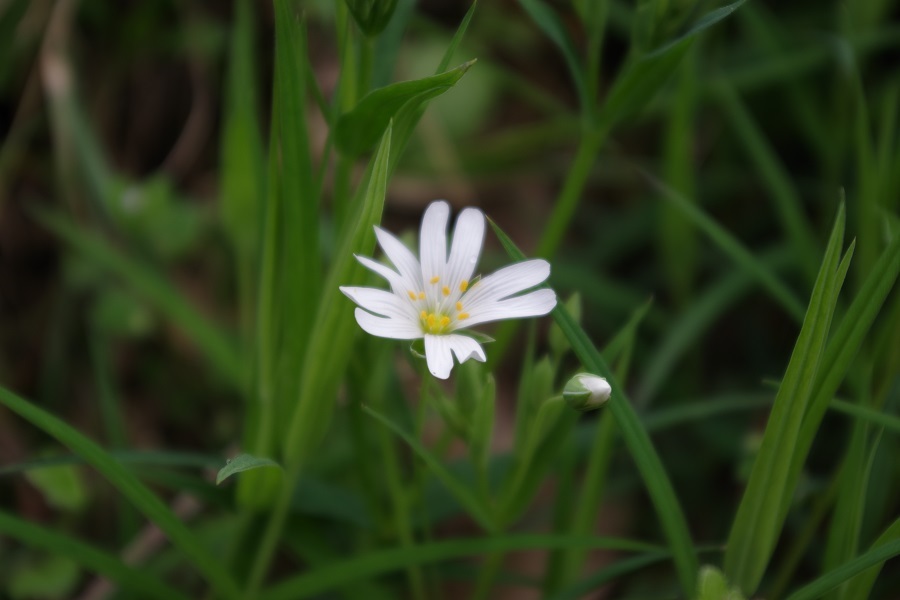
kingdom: Plantae
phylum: Tracheophyta
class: Magnoliopsida
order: Caryophyllales
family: Caryophyllaceae
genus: Rabelera
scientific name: Rabelera holostea
